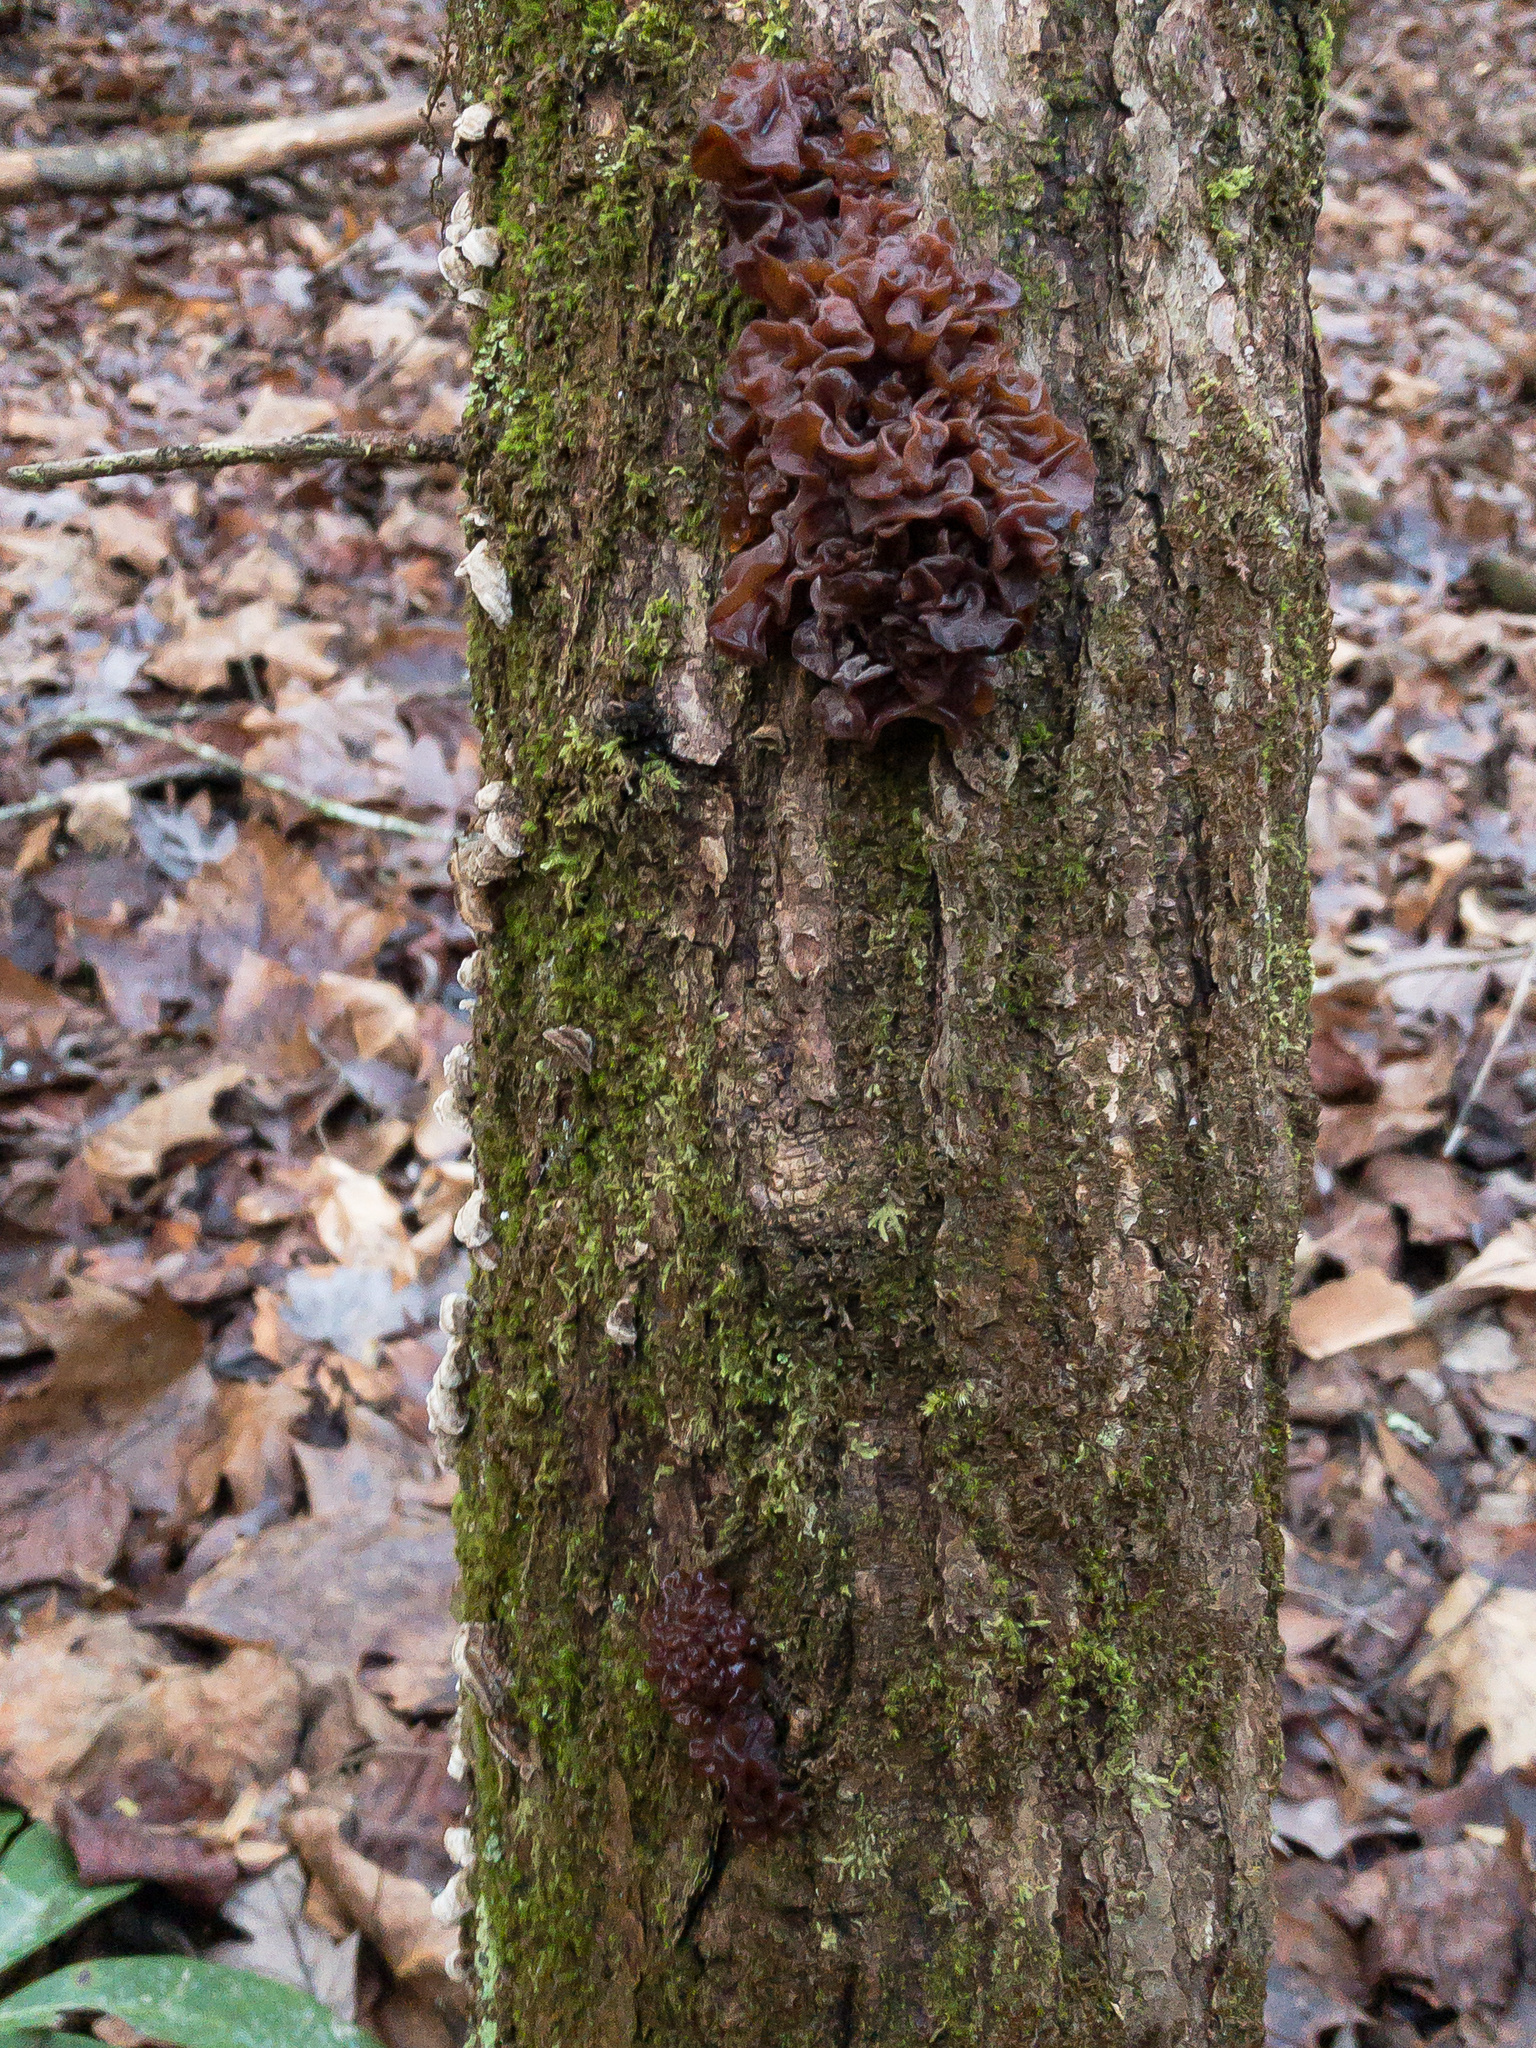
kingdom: Fungi
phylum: Basidiomycota
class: Tremellomycetes
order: Tremellales
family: Tremellaceae
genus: Phaeotremella
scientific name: Phaeotremella foliacea
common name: Leafy brain
